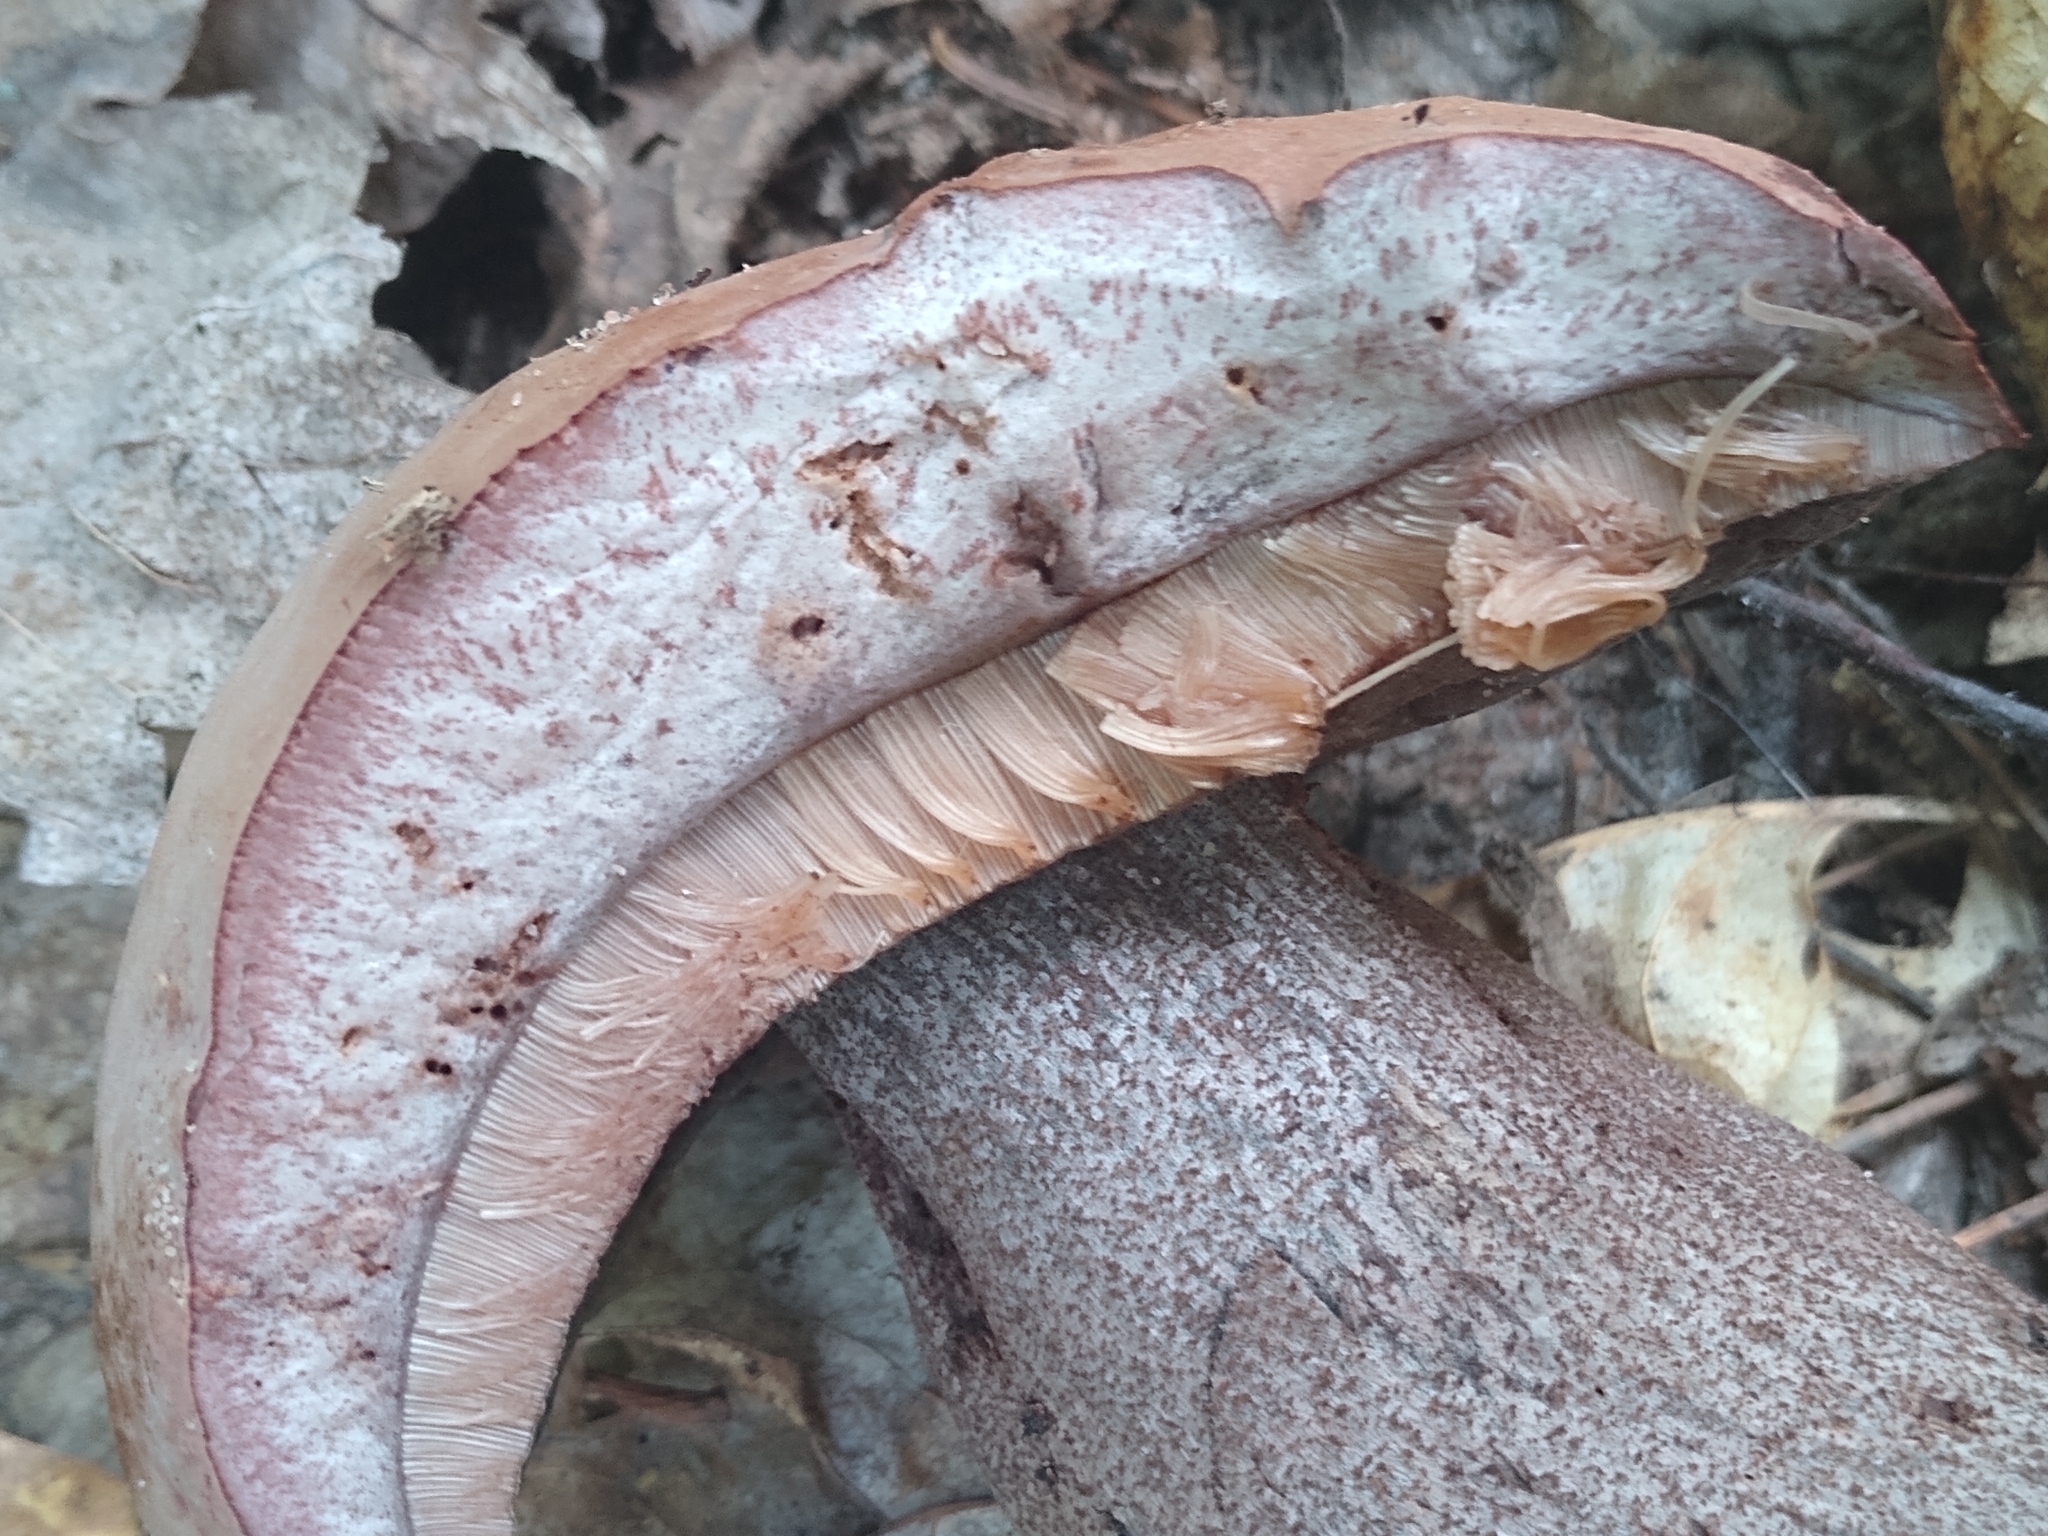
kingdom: Fungi
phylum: Basidiomycota
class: Agaricomycetes
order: Boletales
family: Boletaceae
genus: Sutorius
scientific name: Sutorius eximius
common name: Lilac-brown bolete
